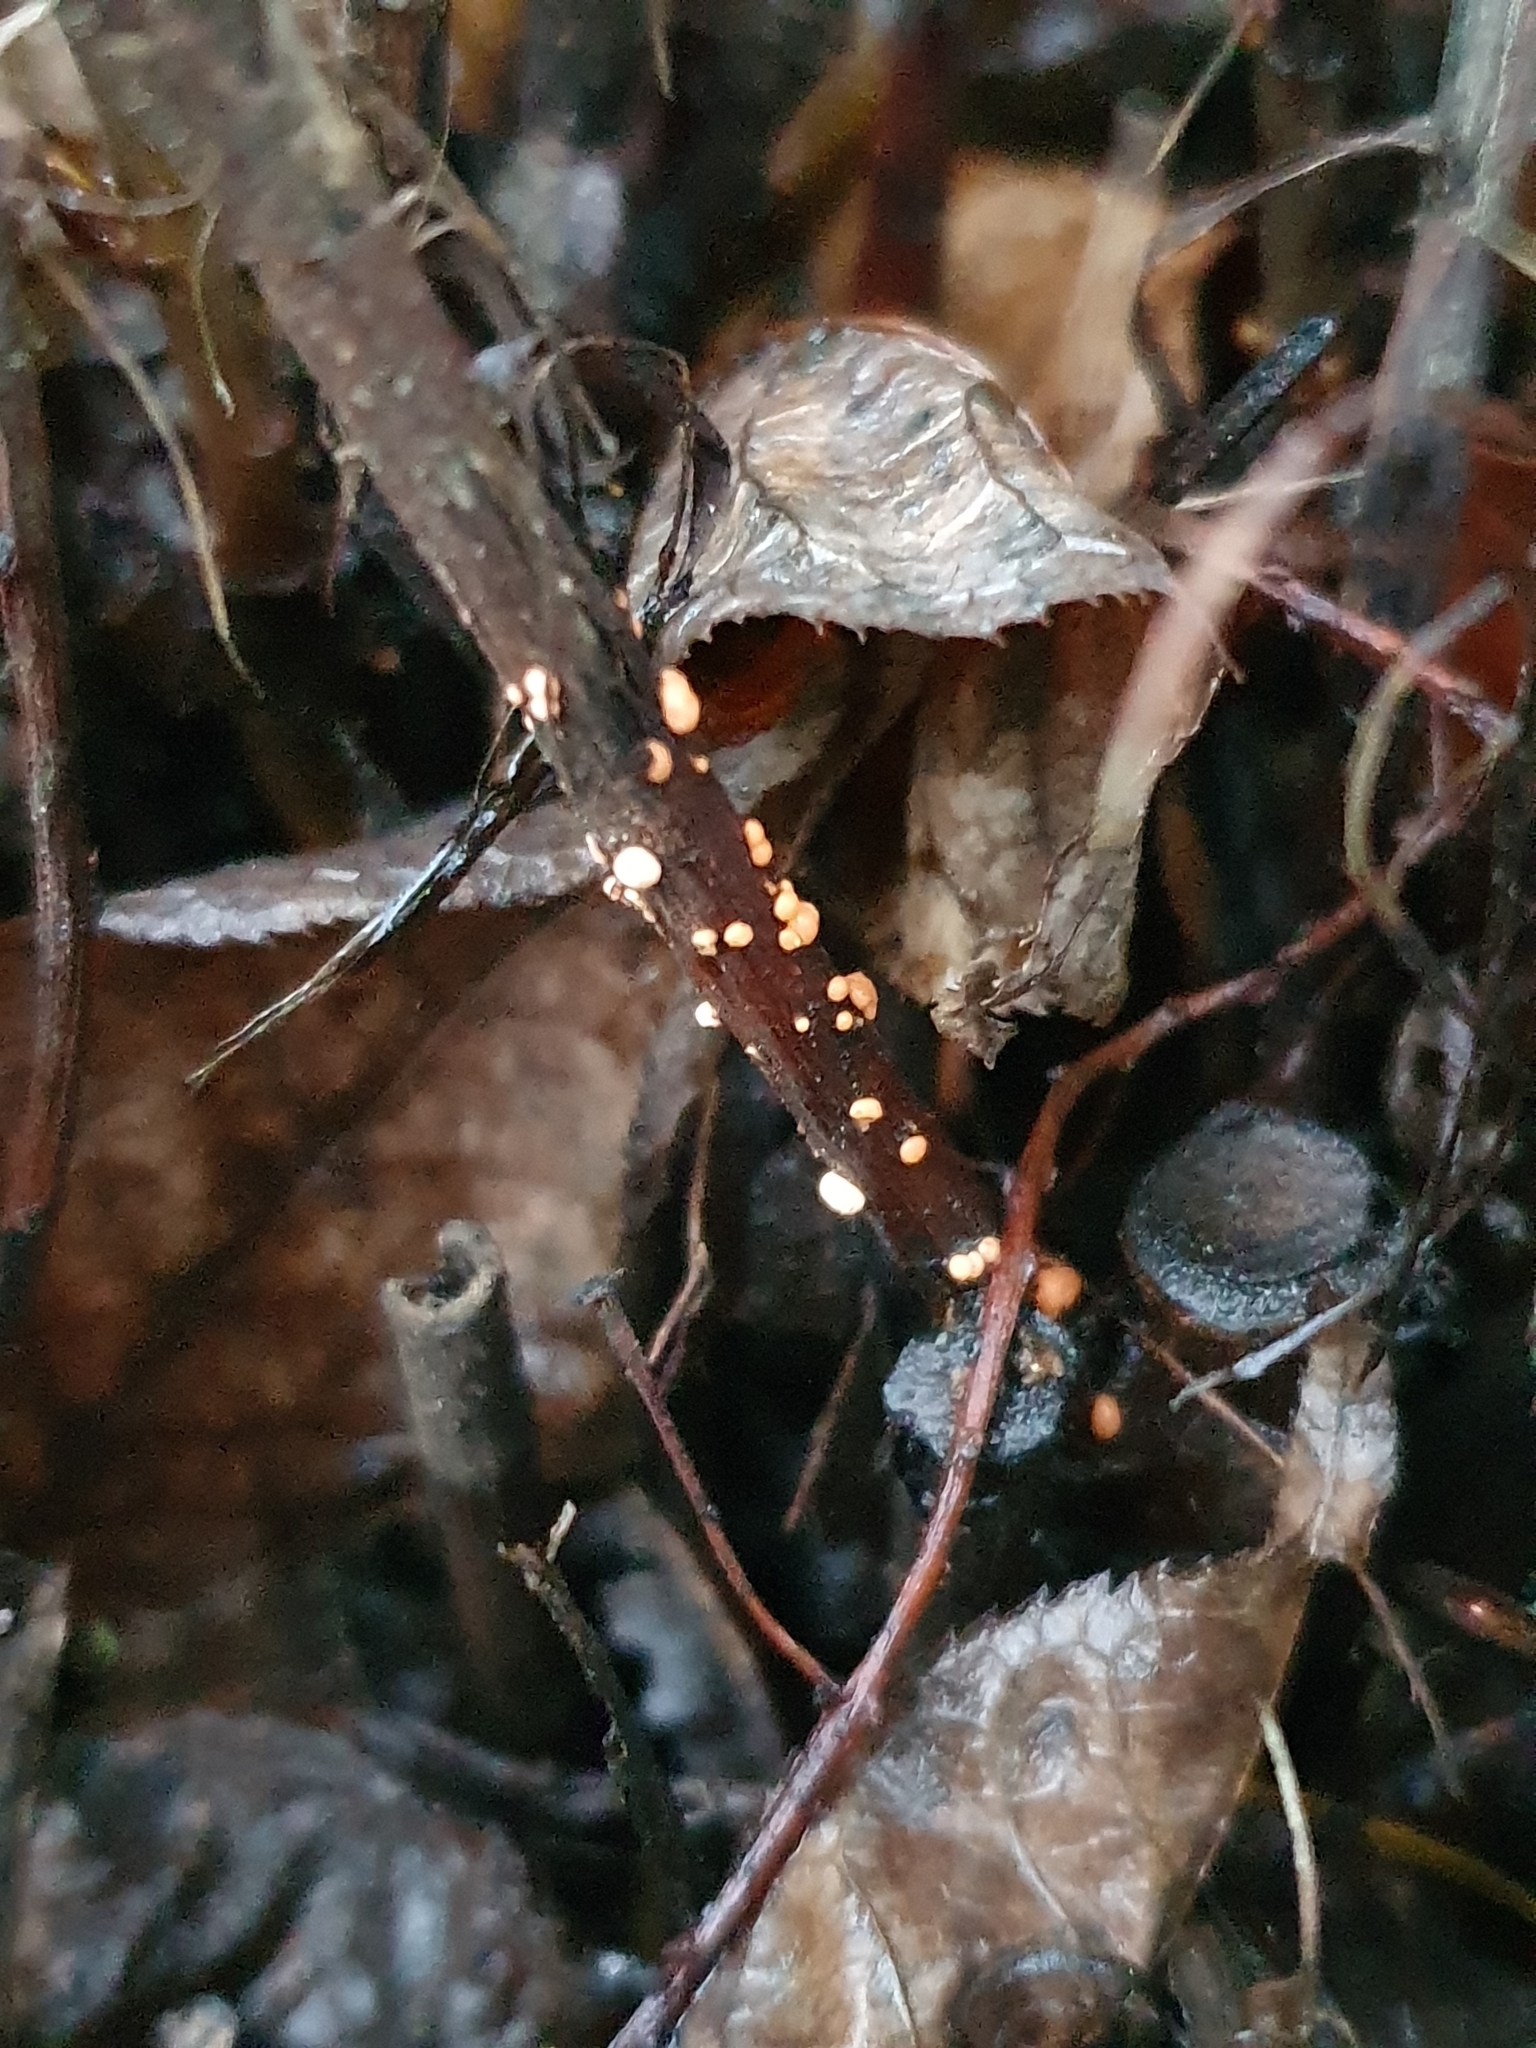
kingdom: Fungi
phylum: Ascomycota
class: Sordariomycetes
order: Hypocreales
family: Nectriaceae
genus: Nectria
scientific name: Nectria cinnabarina
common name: Coral spot
